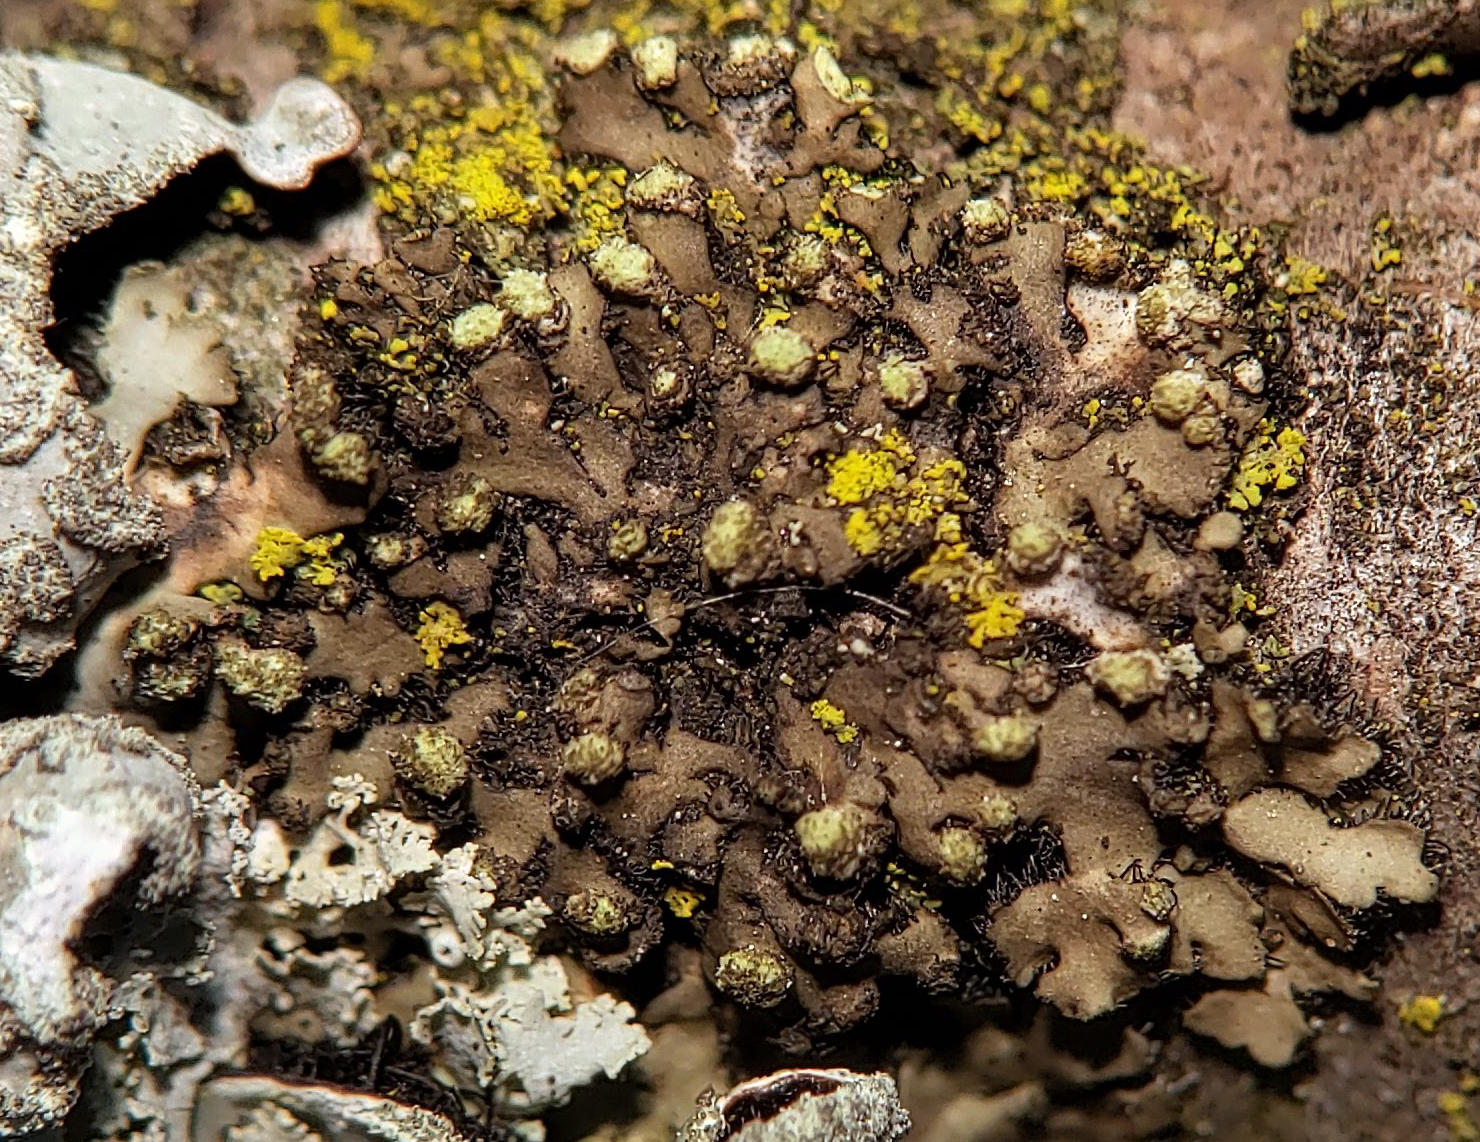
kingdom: Fungi
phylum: Ascomycota
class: Lecanoromycetes
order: Caliciales
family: Physciaceae
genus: Phaeophyscia
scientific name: Phaeophyscia pusilloides
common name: Pom-pom shadow lichen
